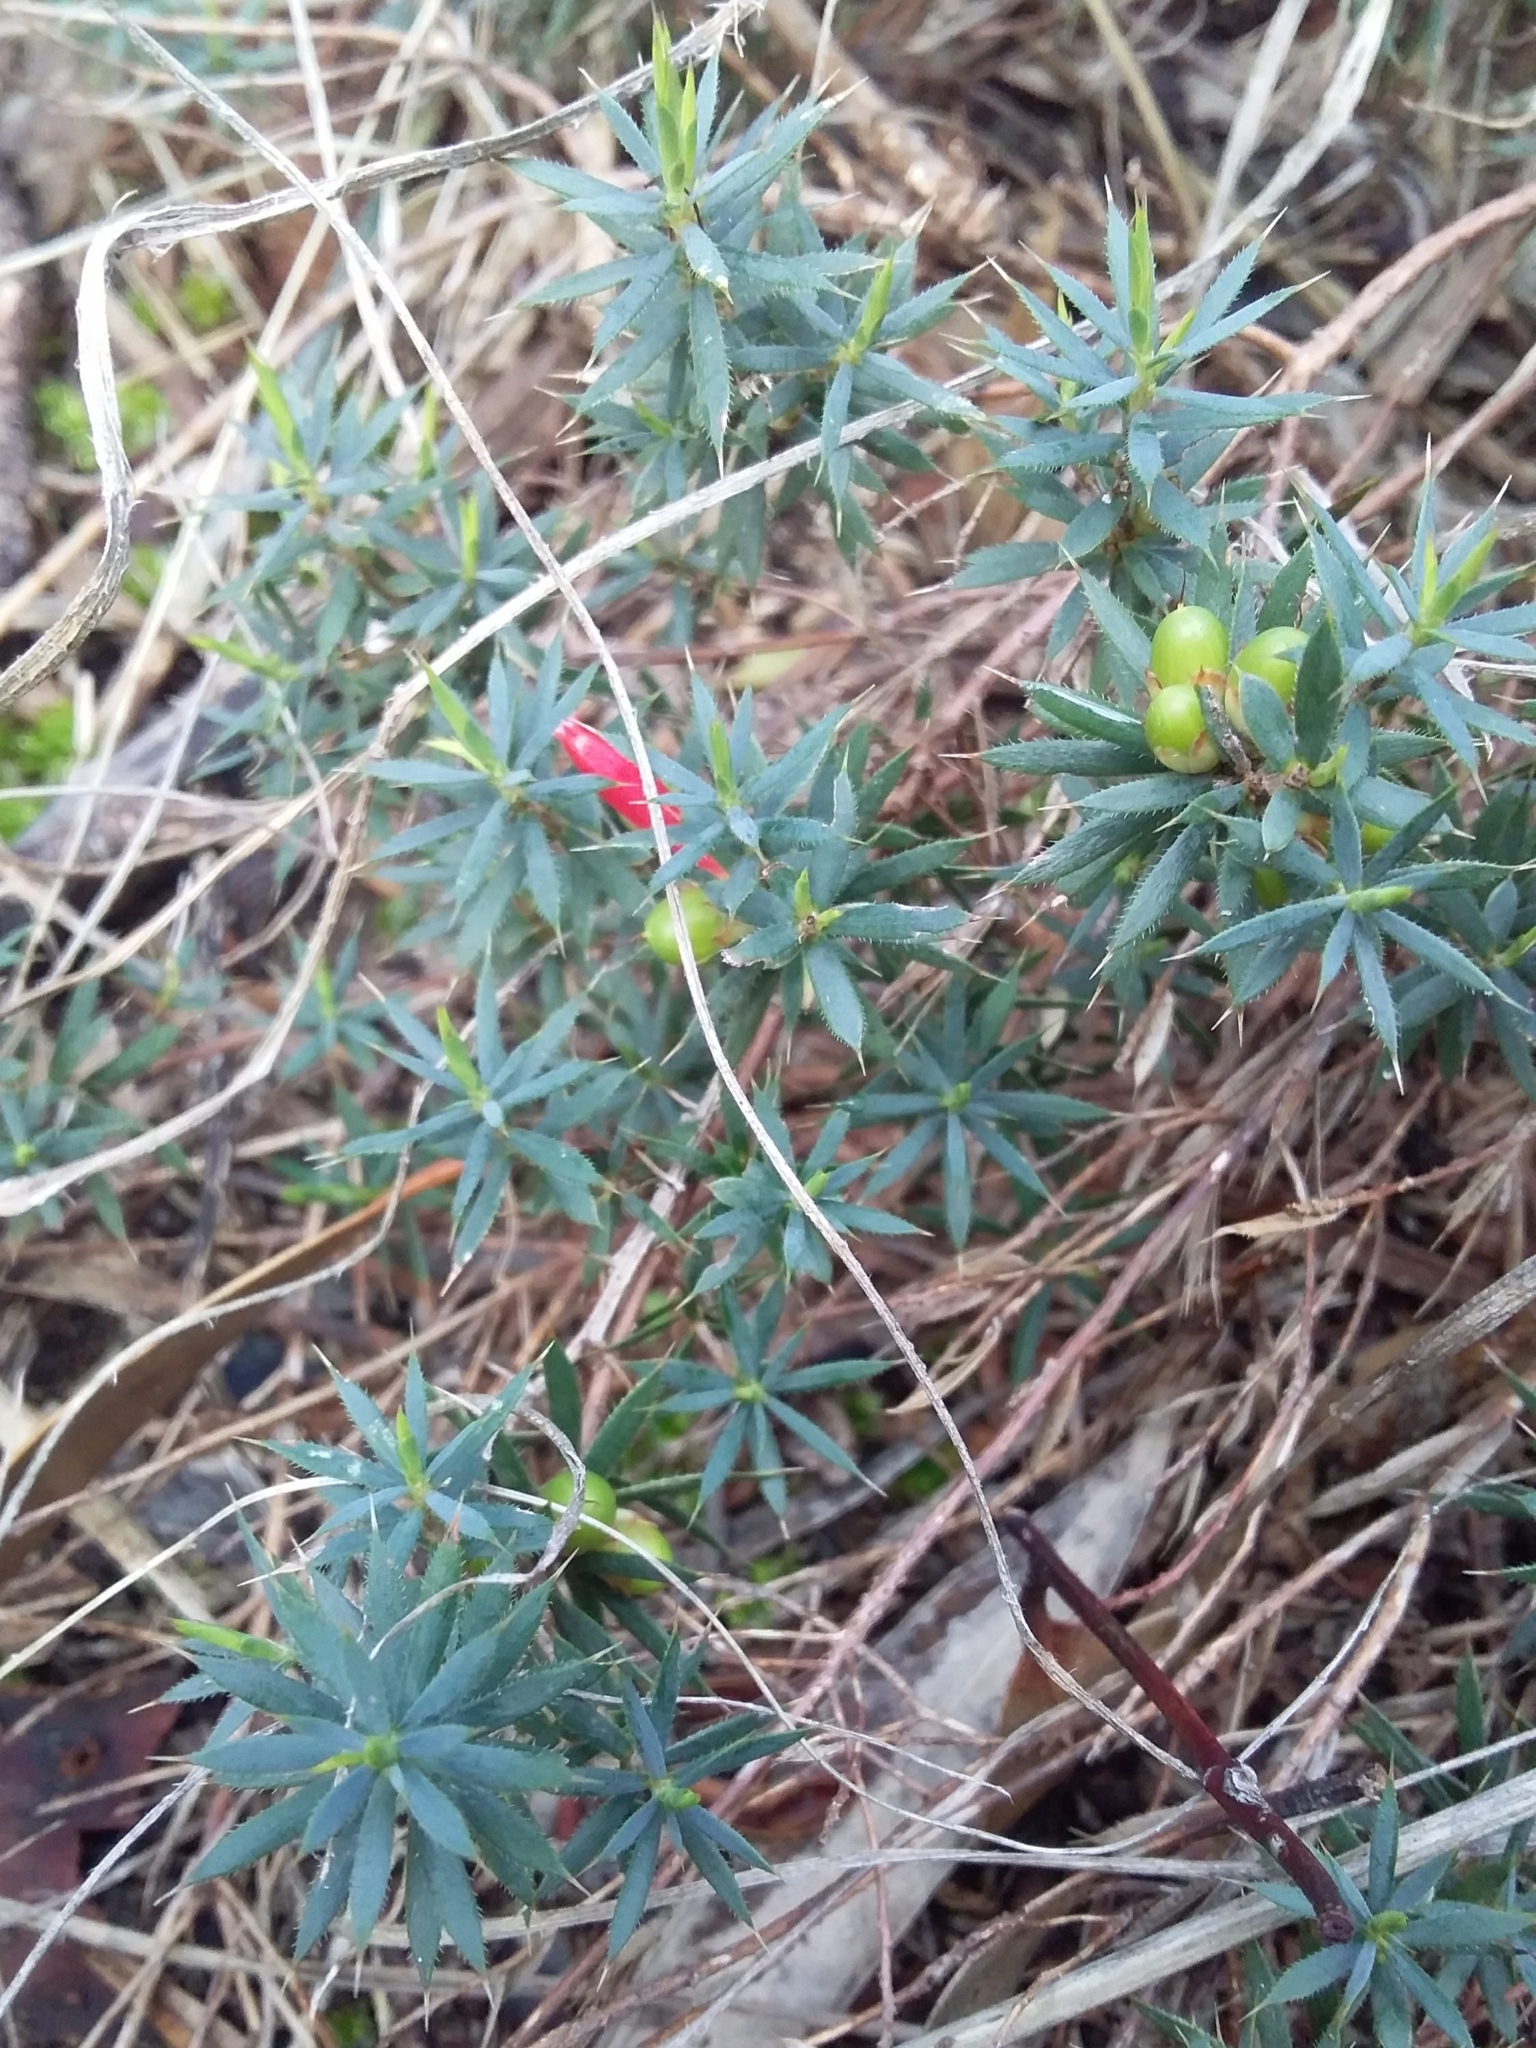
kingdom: Plantae
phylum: Tracheophyta
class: Magnoliopsida
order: Ericales
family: Ericaceae
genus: Styphelia
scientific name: Styphelia humifusa
